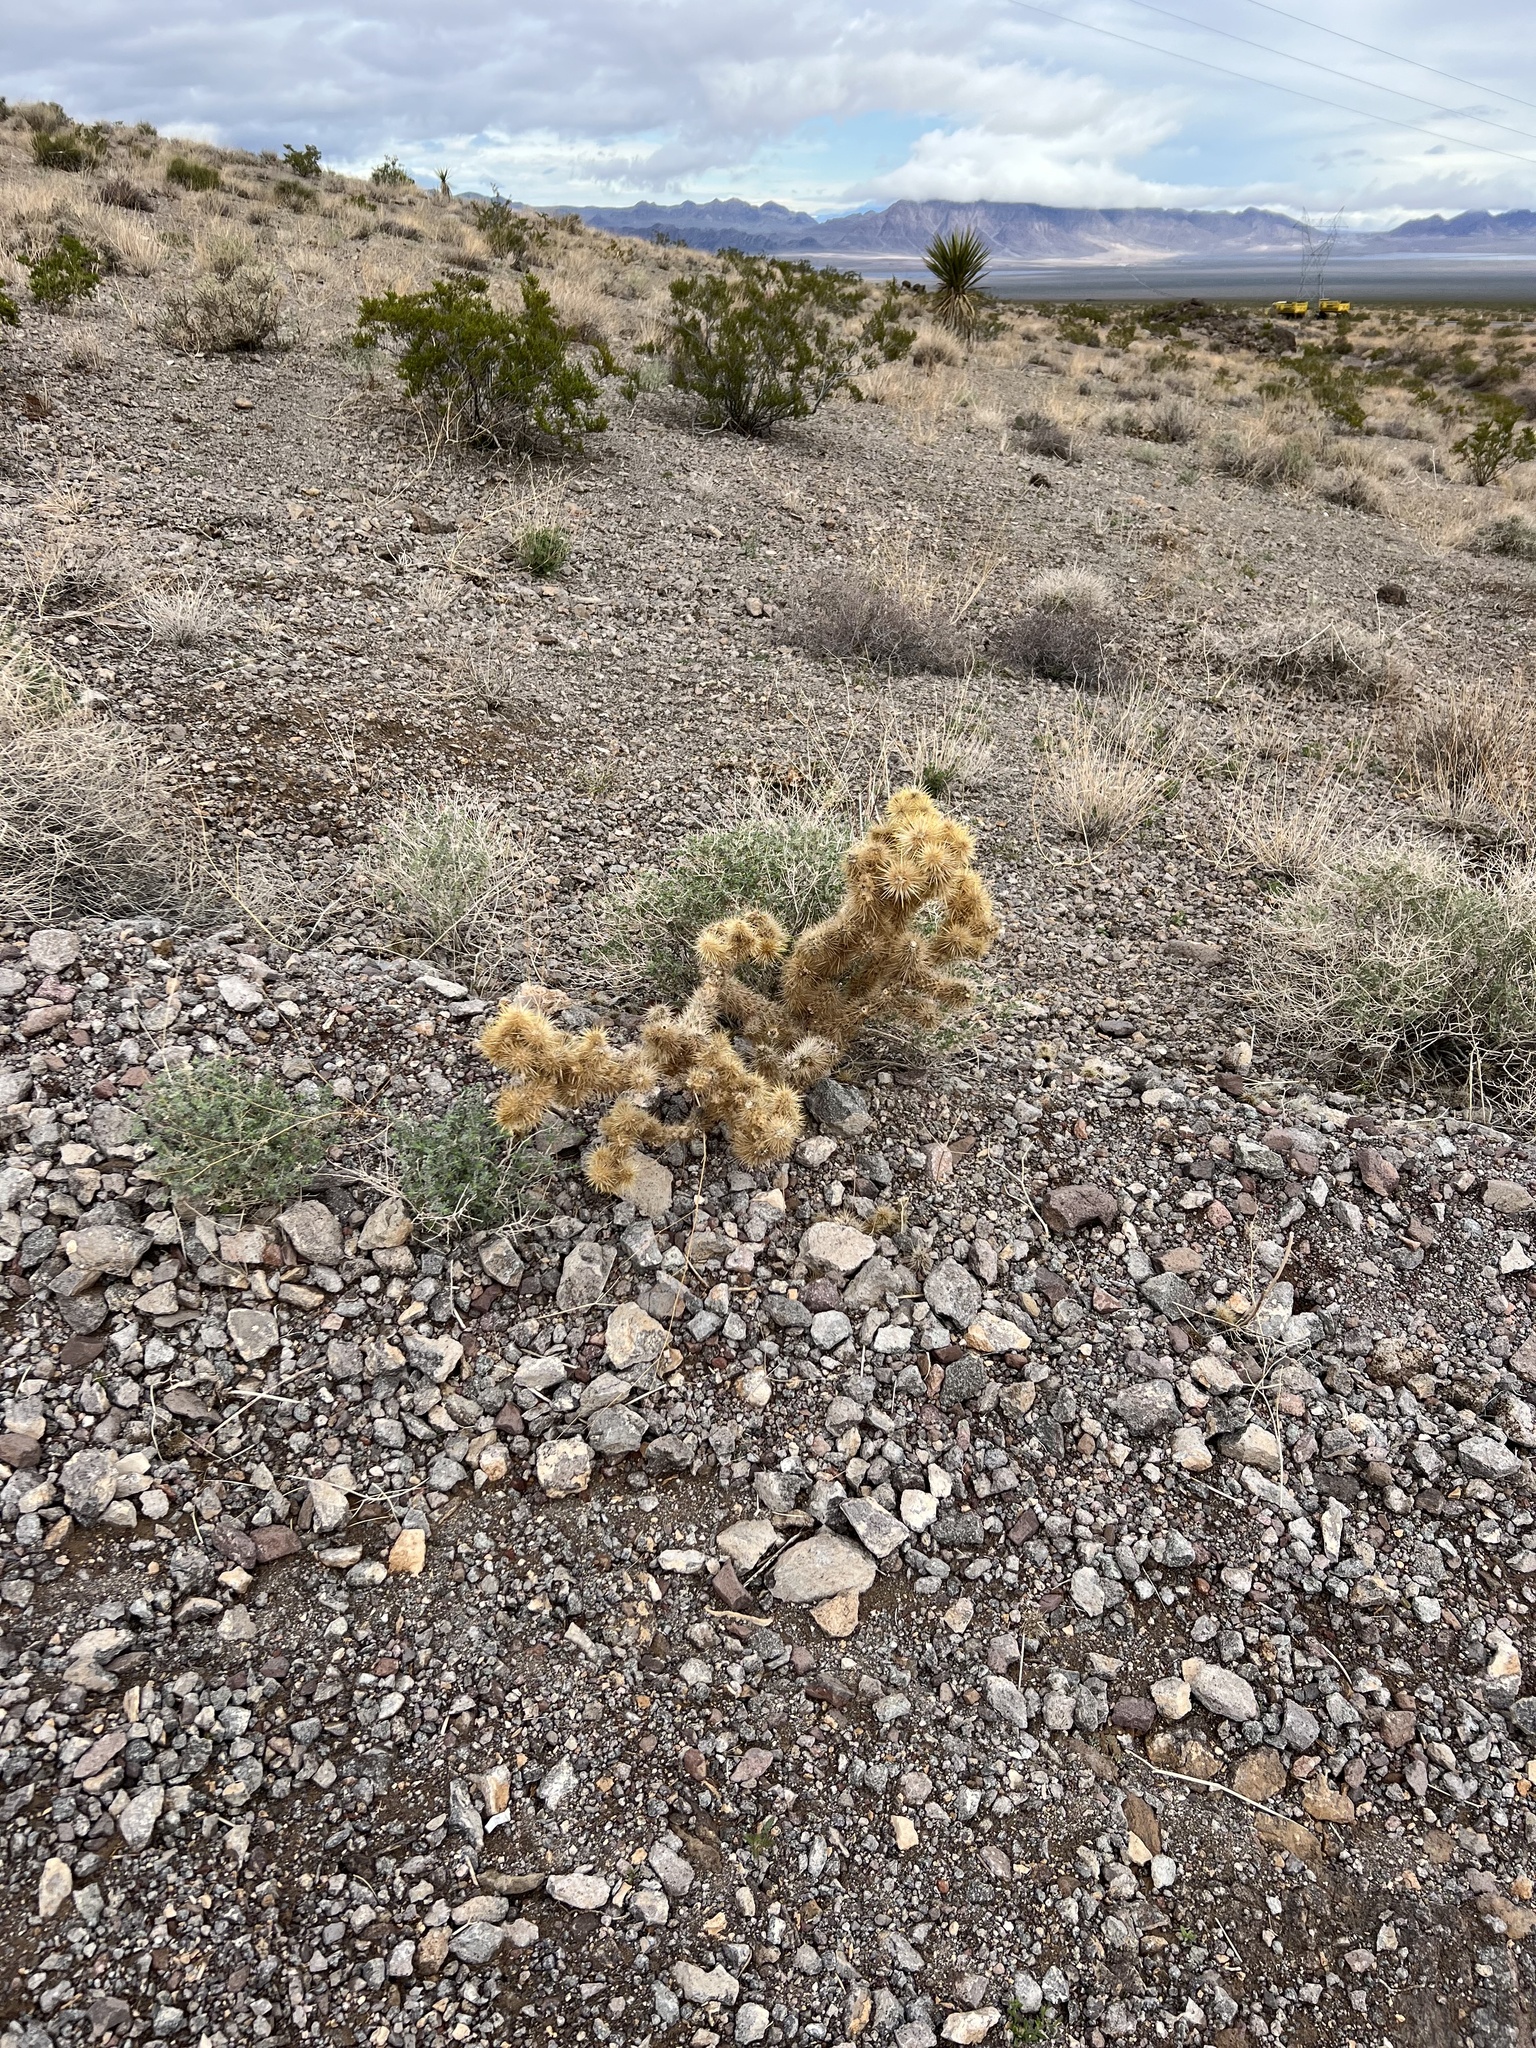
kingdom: Plantae
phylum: Tracheophyta
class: Magnoliopsida
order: Caryophyllales
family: Cactaceae
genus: Cylindropuntia
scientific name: Cylindropuntia echinocarpa
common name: Ground cholla
